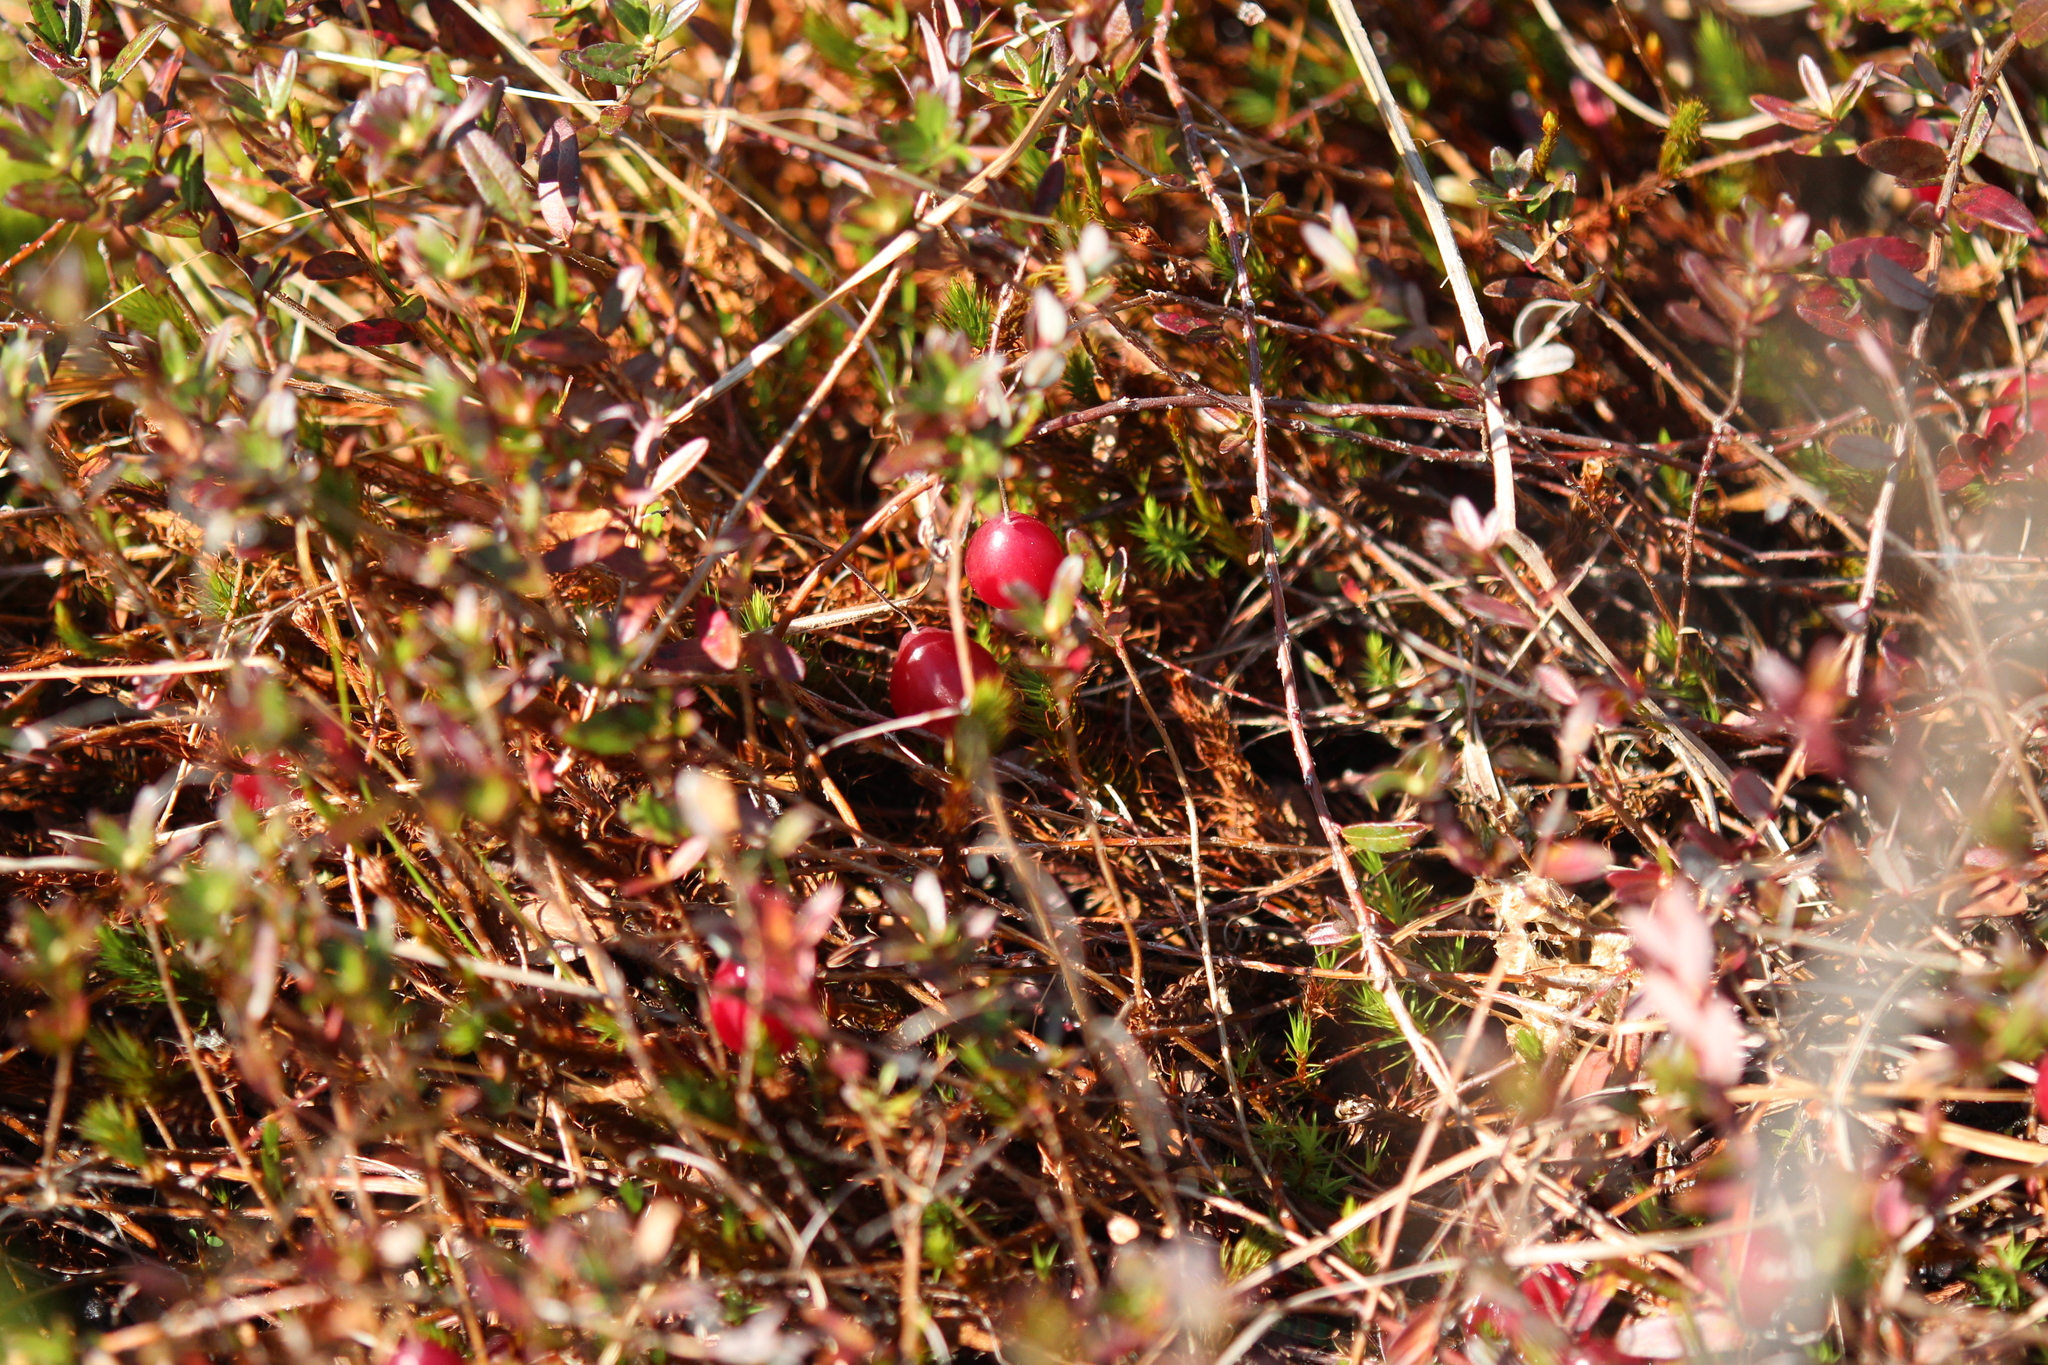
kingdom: Plantae
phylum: Tracheophyta
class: Magnoliopsida
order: Ericales
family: Ericaceae
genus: Vaccinium
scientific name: Vaccinium macrocarpon
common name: American cranberry
